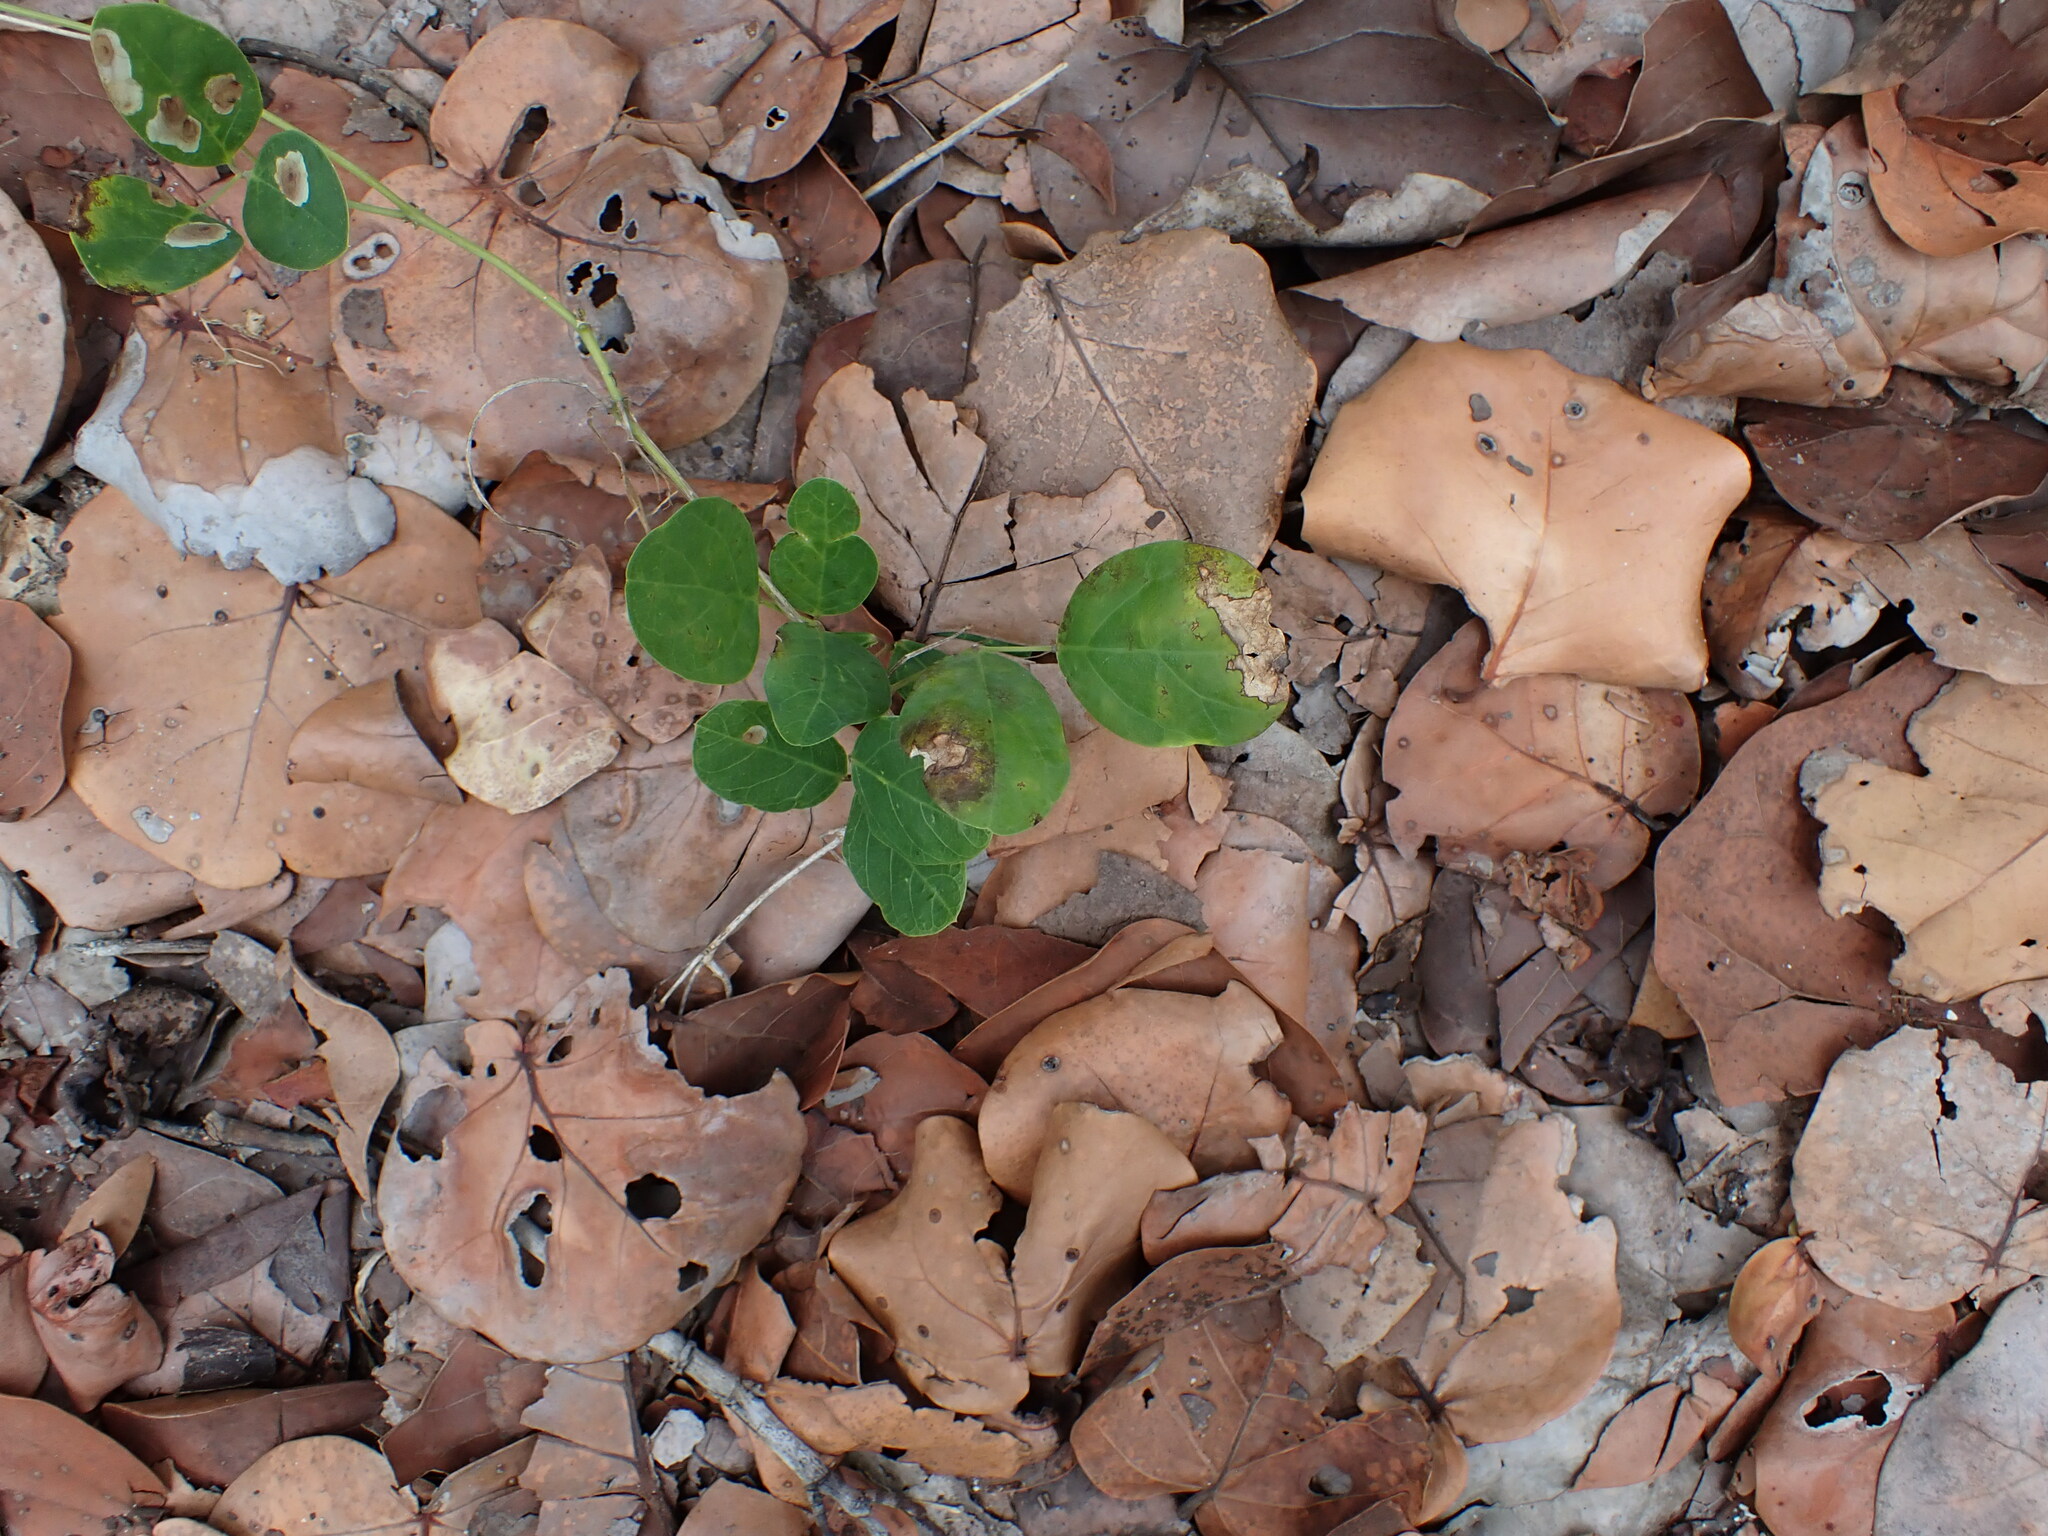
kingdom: Plantae
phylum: Tracheophyta
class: Magnoliopsida
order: Fabales
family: Fabaceae
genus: Canavalia
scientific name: Canavalia rosea
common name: Beach-bean
